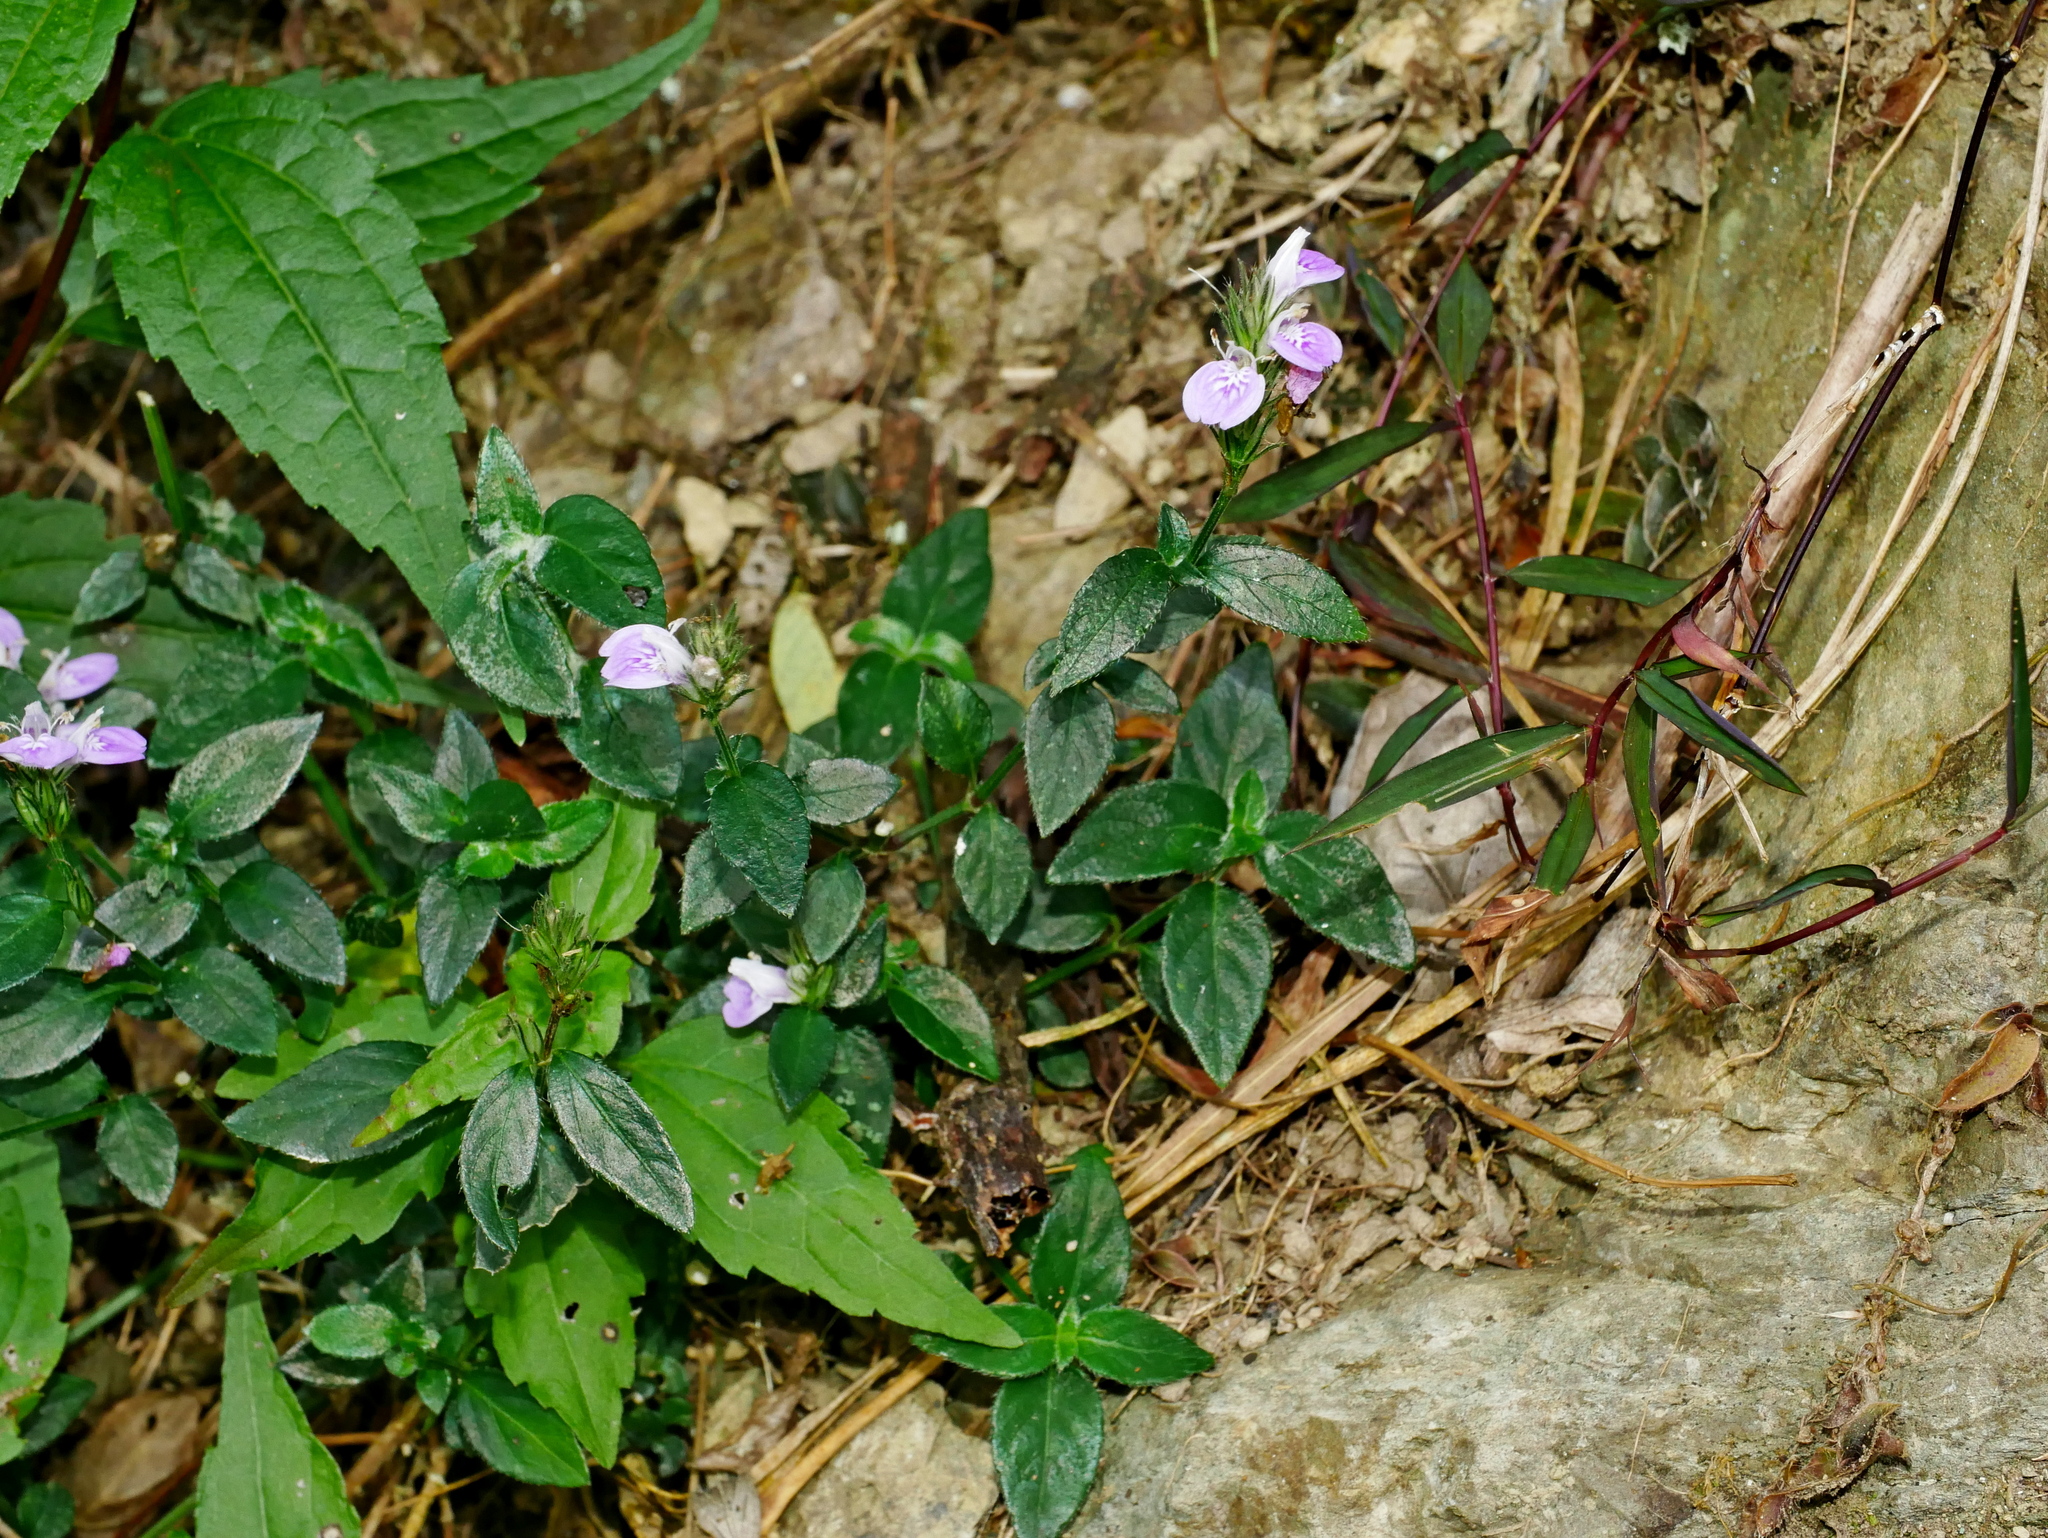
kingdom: Plantae
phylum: Tracheophyta
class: Magnoliopsida
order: Lamiales
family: Acanthaceae
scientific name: Acanthaceae
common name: Acanthaceae
